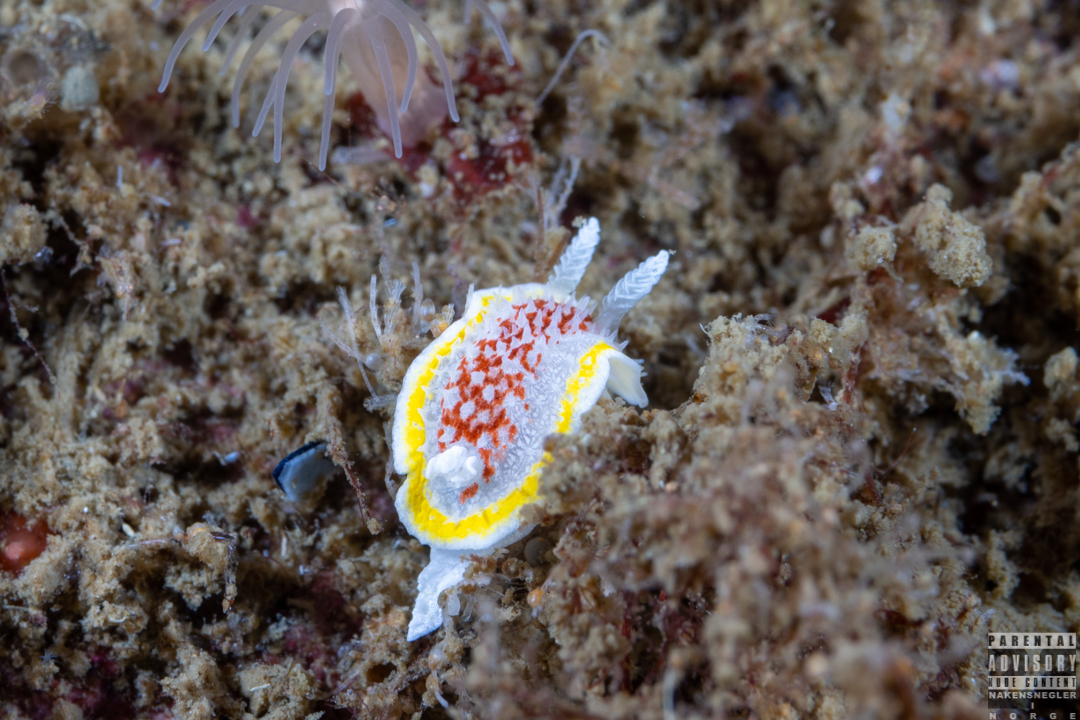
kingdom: Animalia
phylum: Mollusca
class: Gastropoda
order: Nudibranchia
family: Calycidorididae
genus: Diaphorodoris
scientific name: Diaphorodoris luteocincta
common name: Fried egg nudibranch
